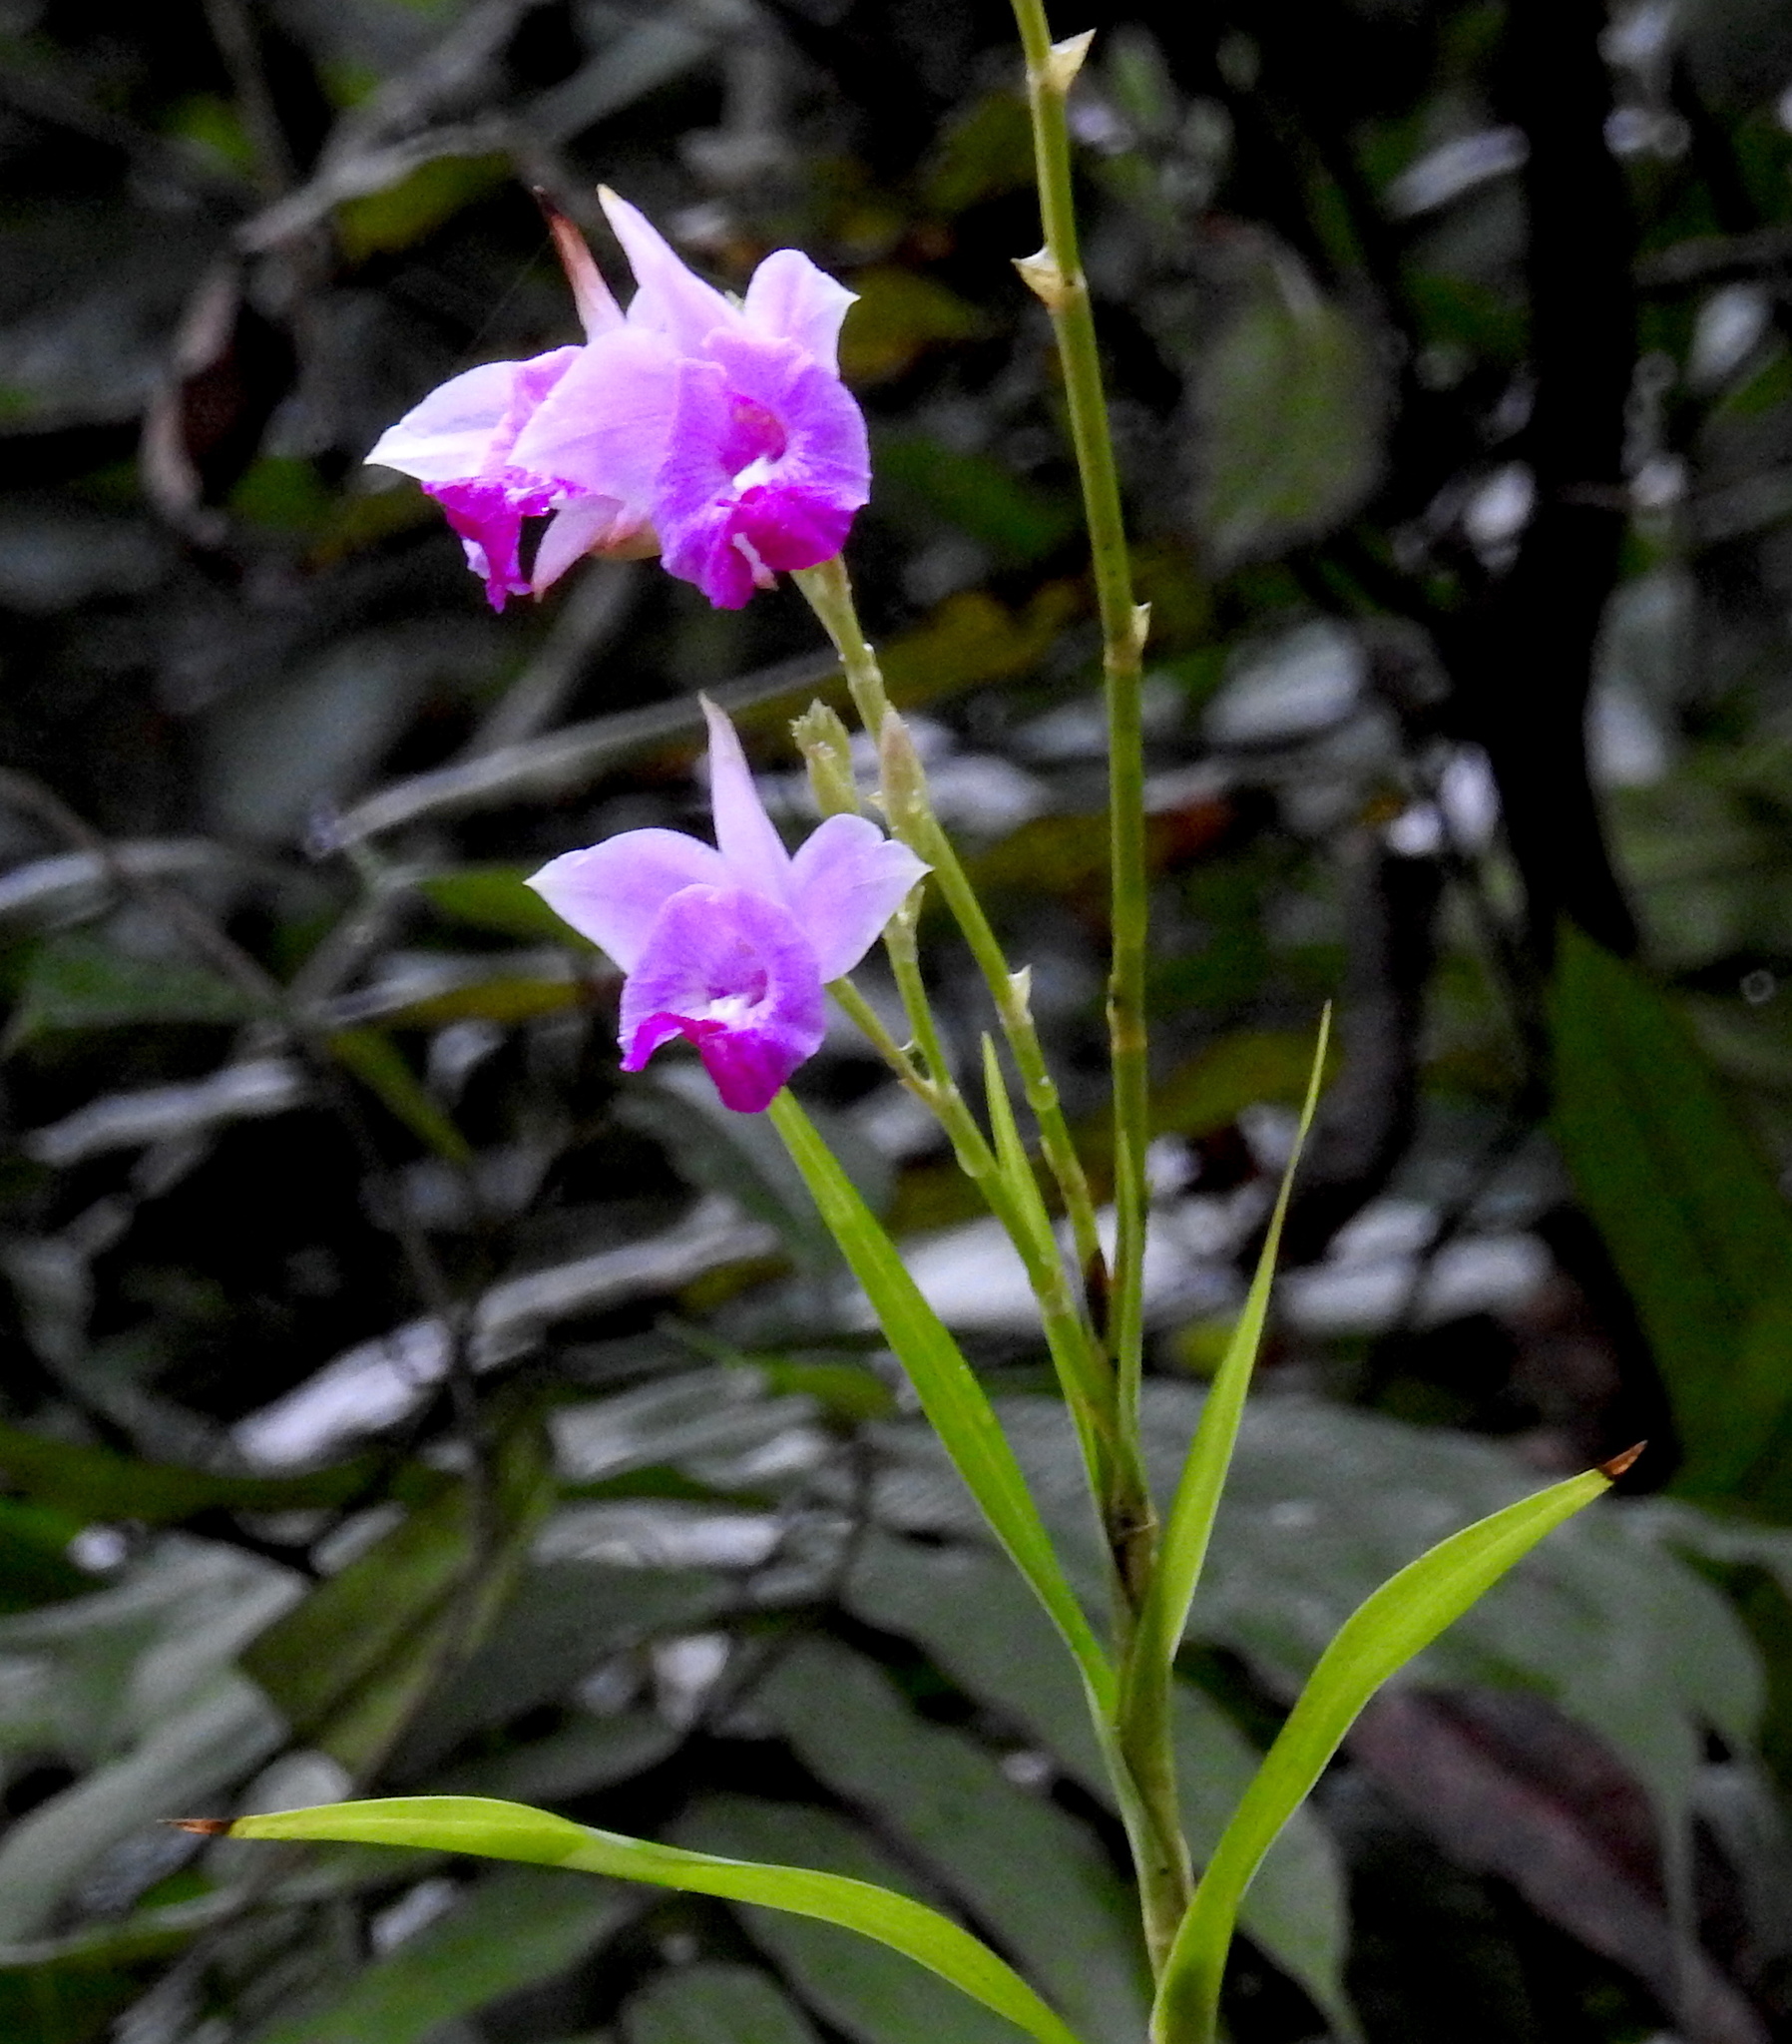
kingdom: Plantae
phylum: Tracheophyta
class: Liliopsida
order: Asparagales
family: Orchidaceae
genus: Arundina
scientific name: Arundina graminifolia
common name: Bamboo orchid
